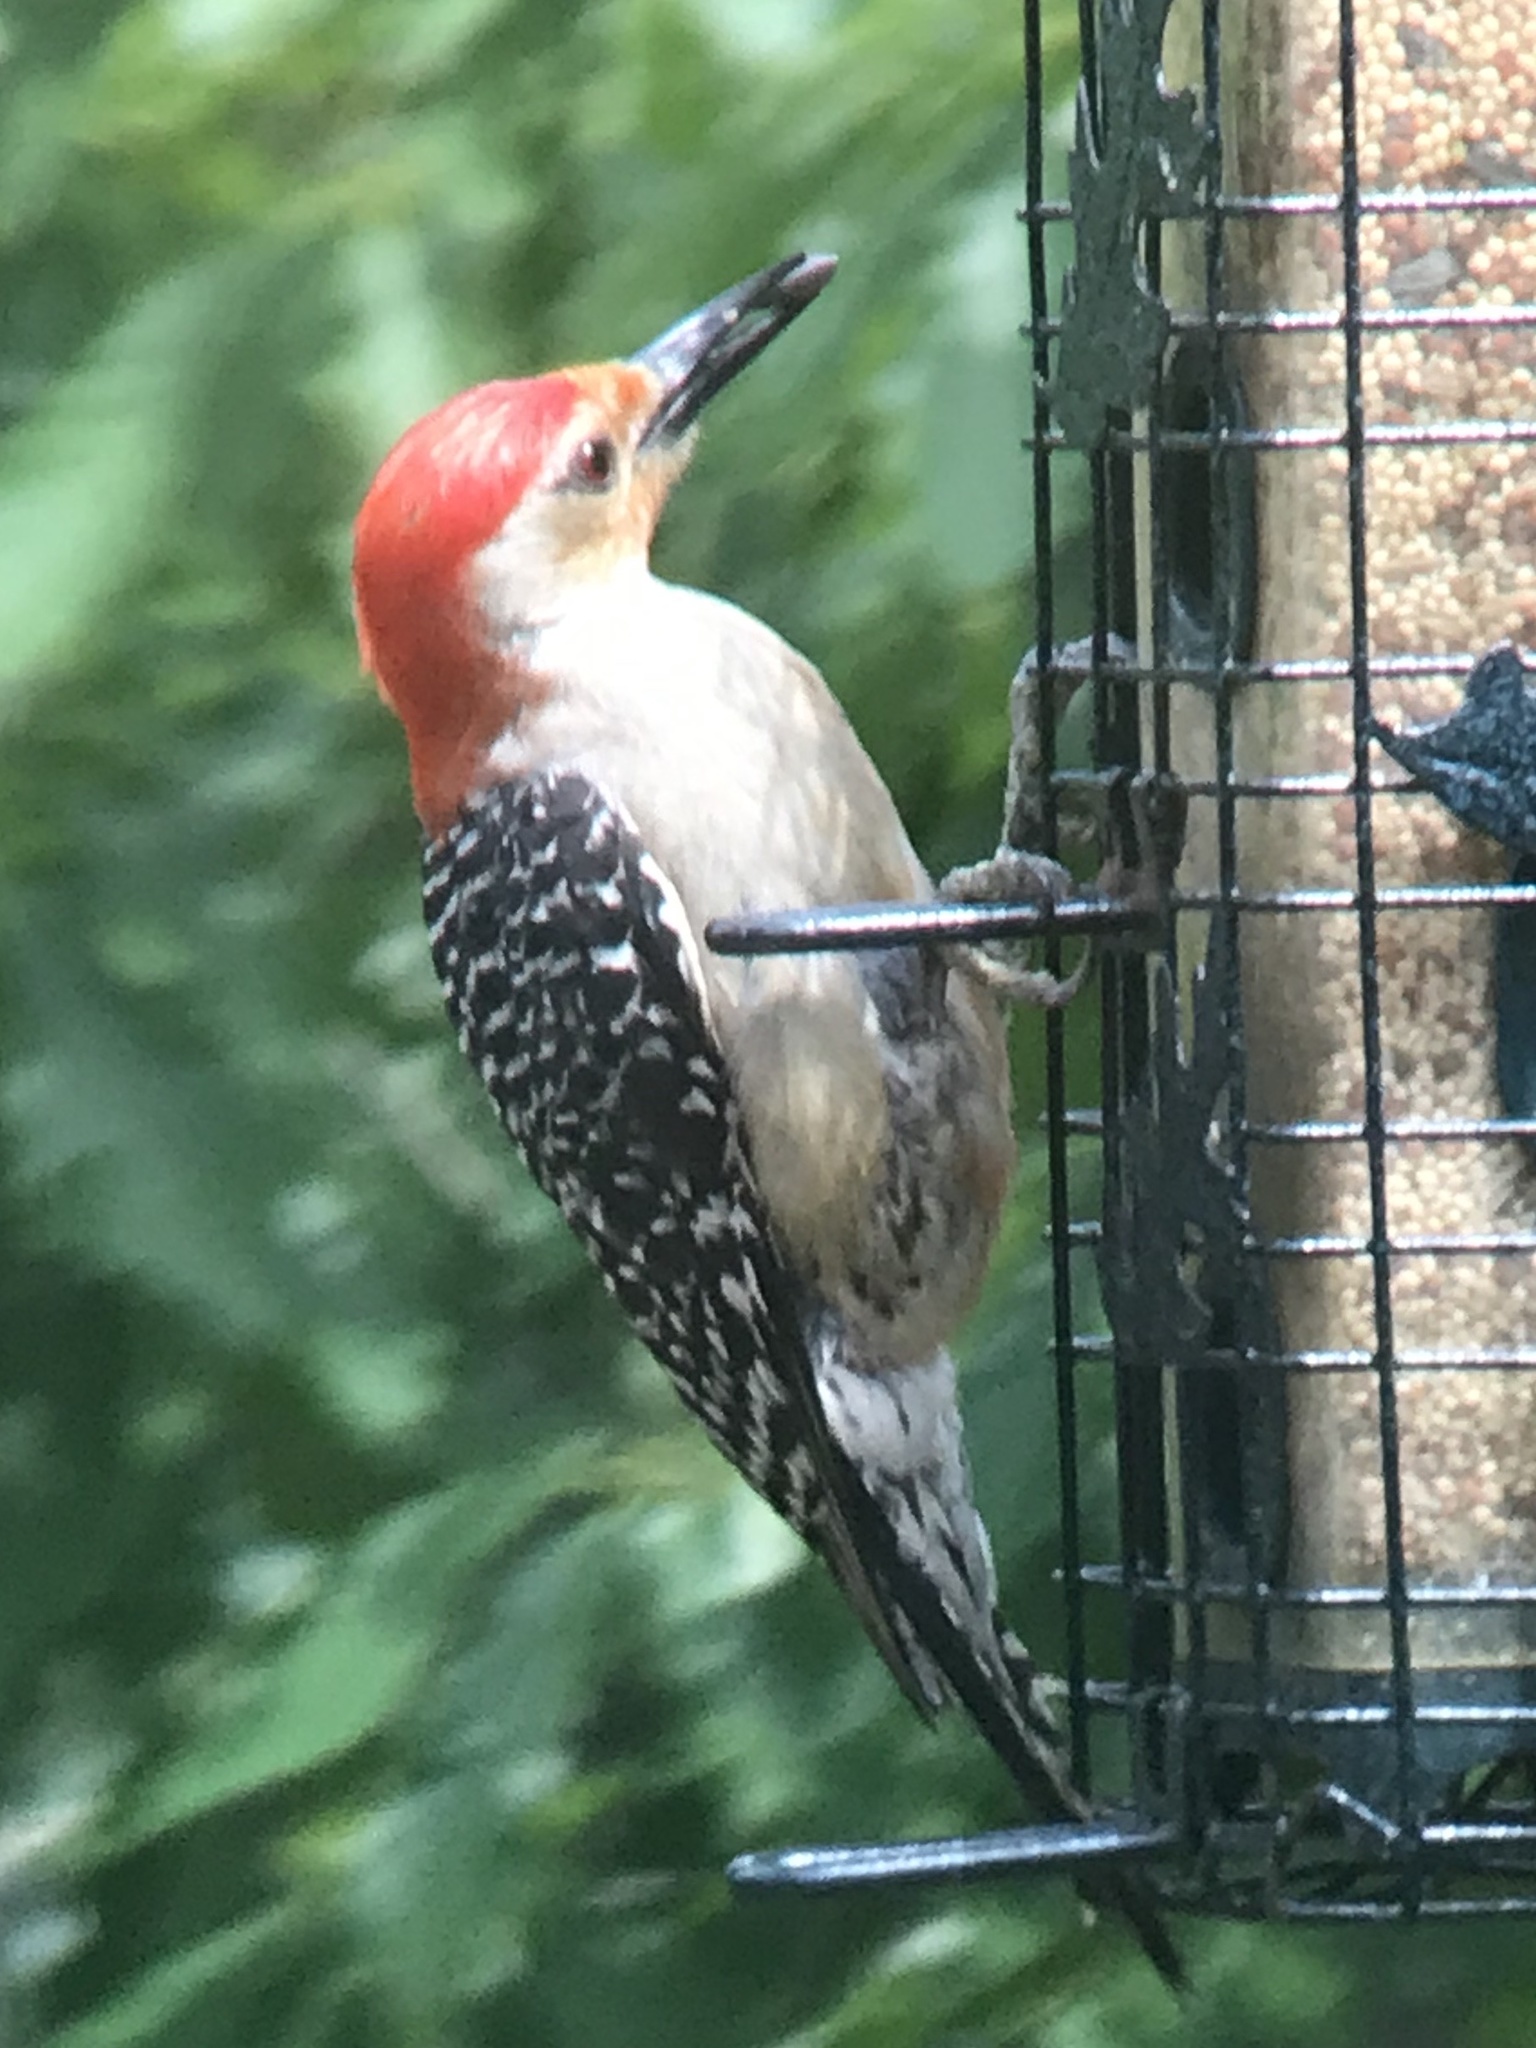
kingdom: Animalia
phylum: Chordata
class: Aves
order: Piciformes
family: Picidae
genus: Melanerpes
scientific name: Melanerpes carolinus
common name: Red-bellied woodpecker
